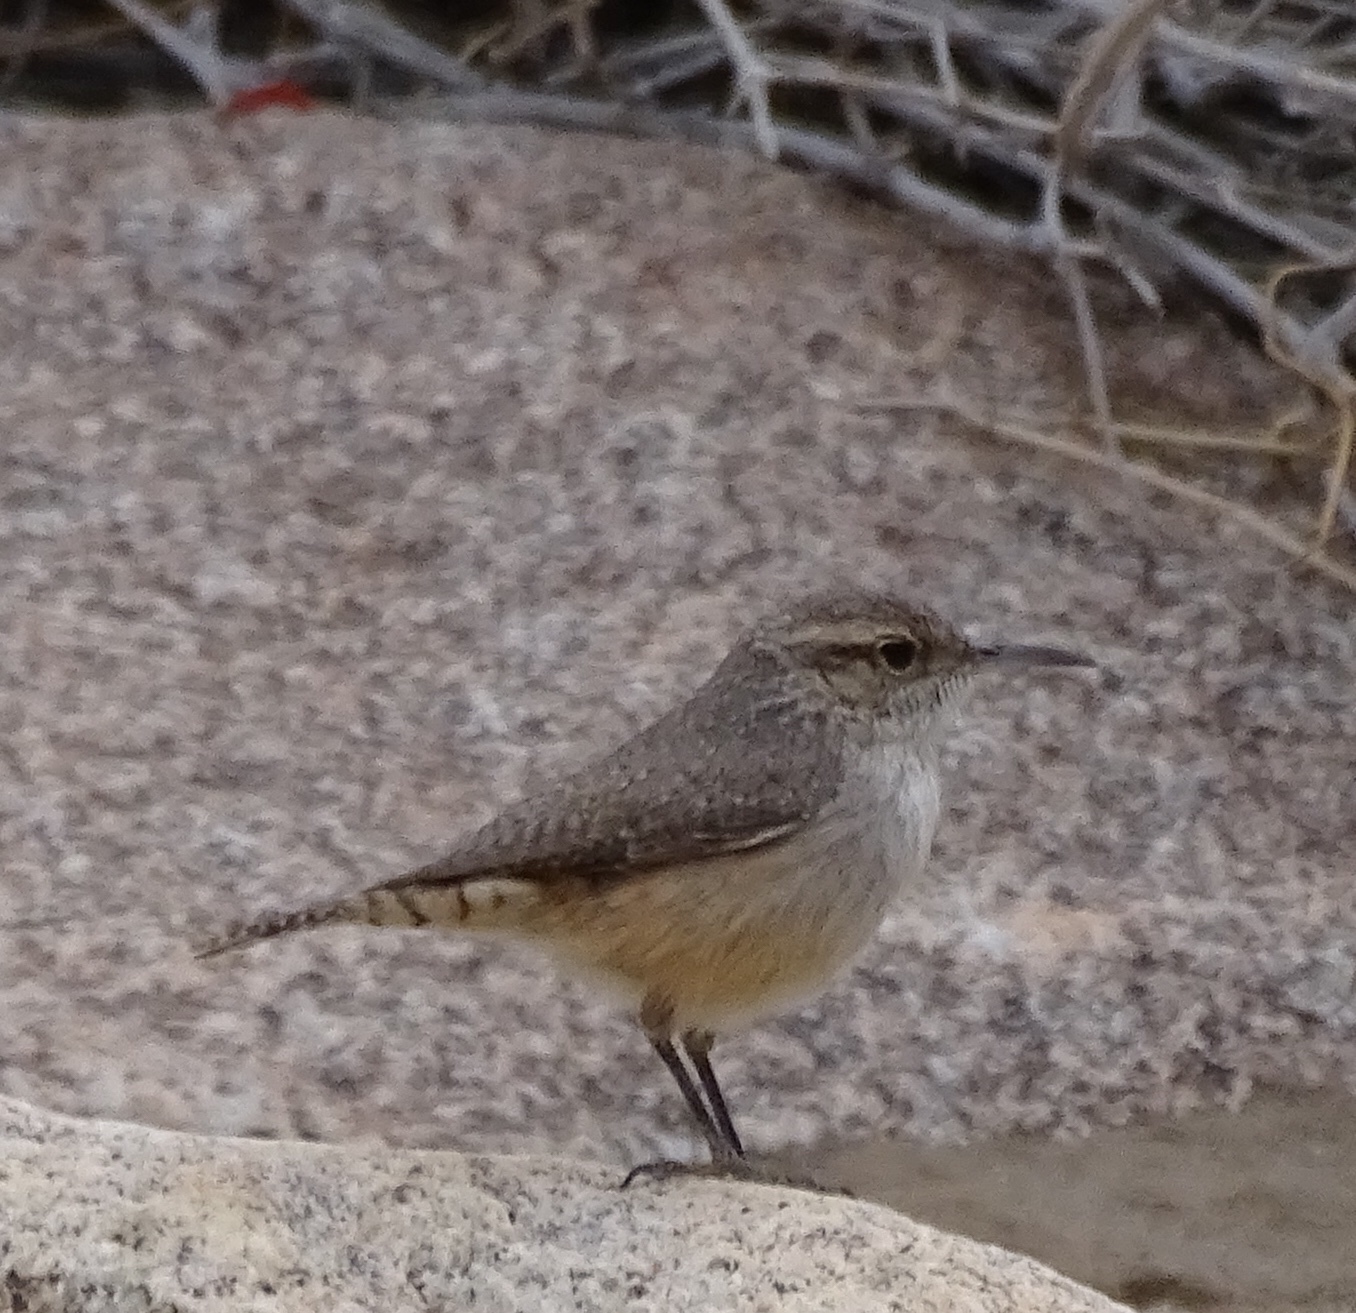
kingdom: Animalia
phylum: Chordata
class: Aves
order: Passeriformes
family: Troglodytidae
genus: Salpinctes
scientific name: Salpinctes obsoletus
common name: Rock wren
